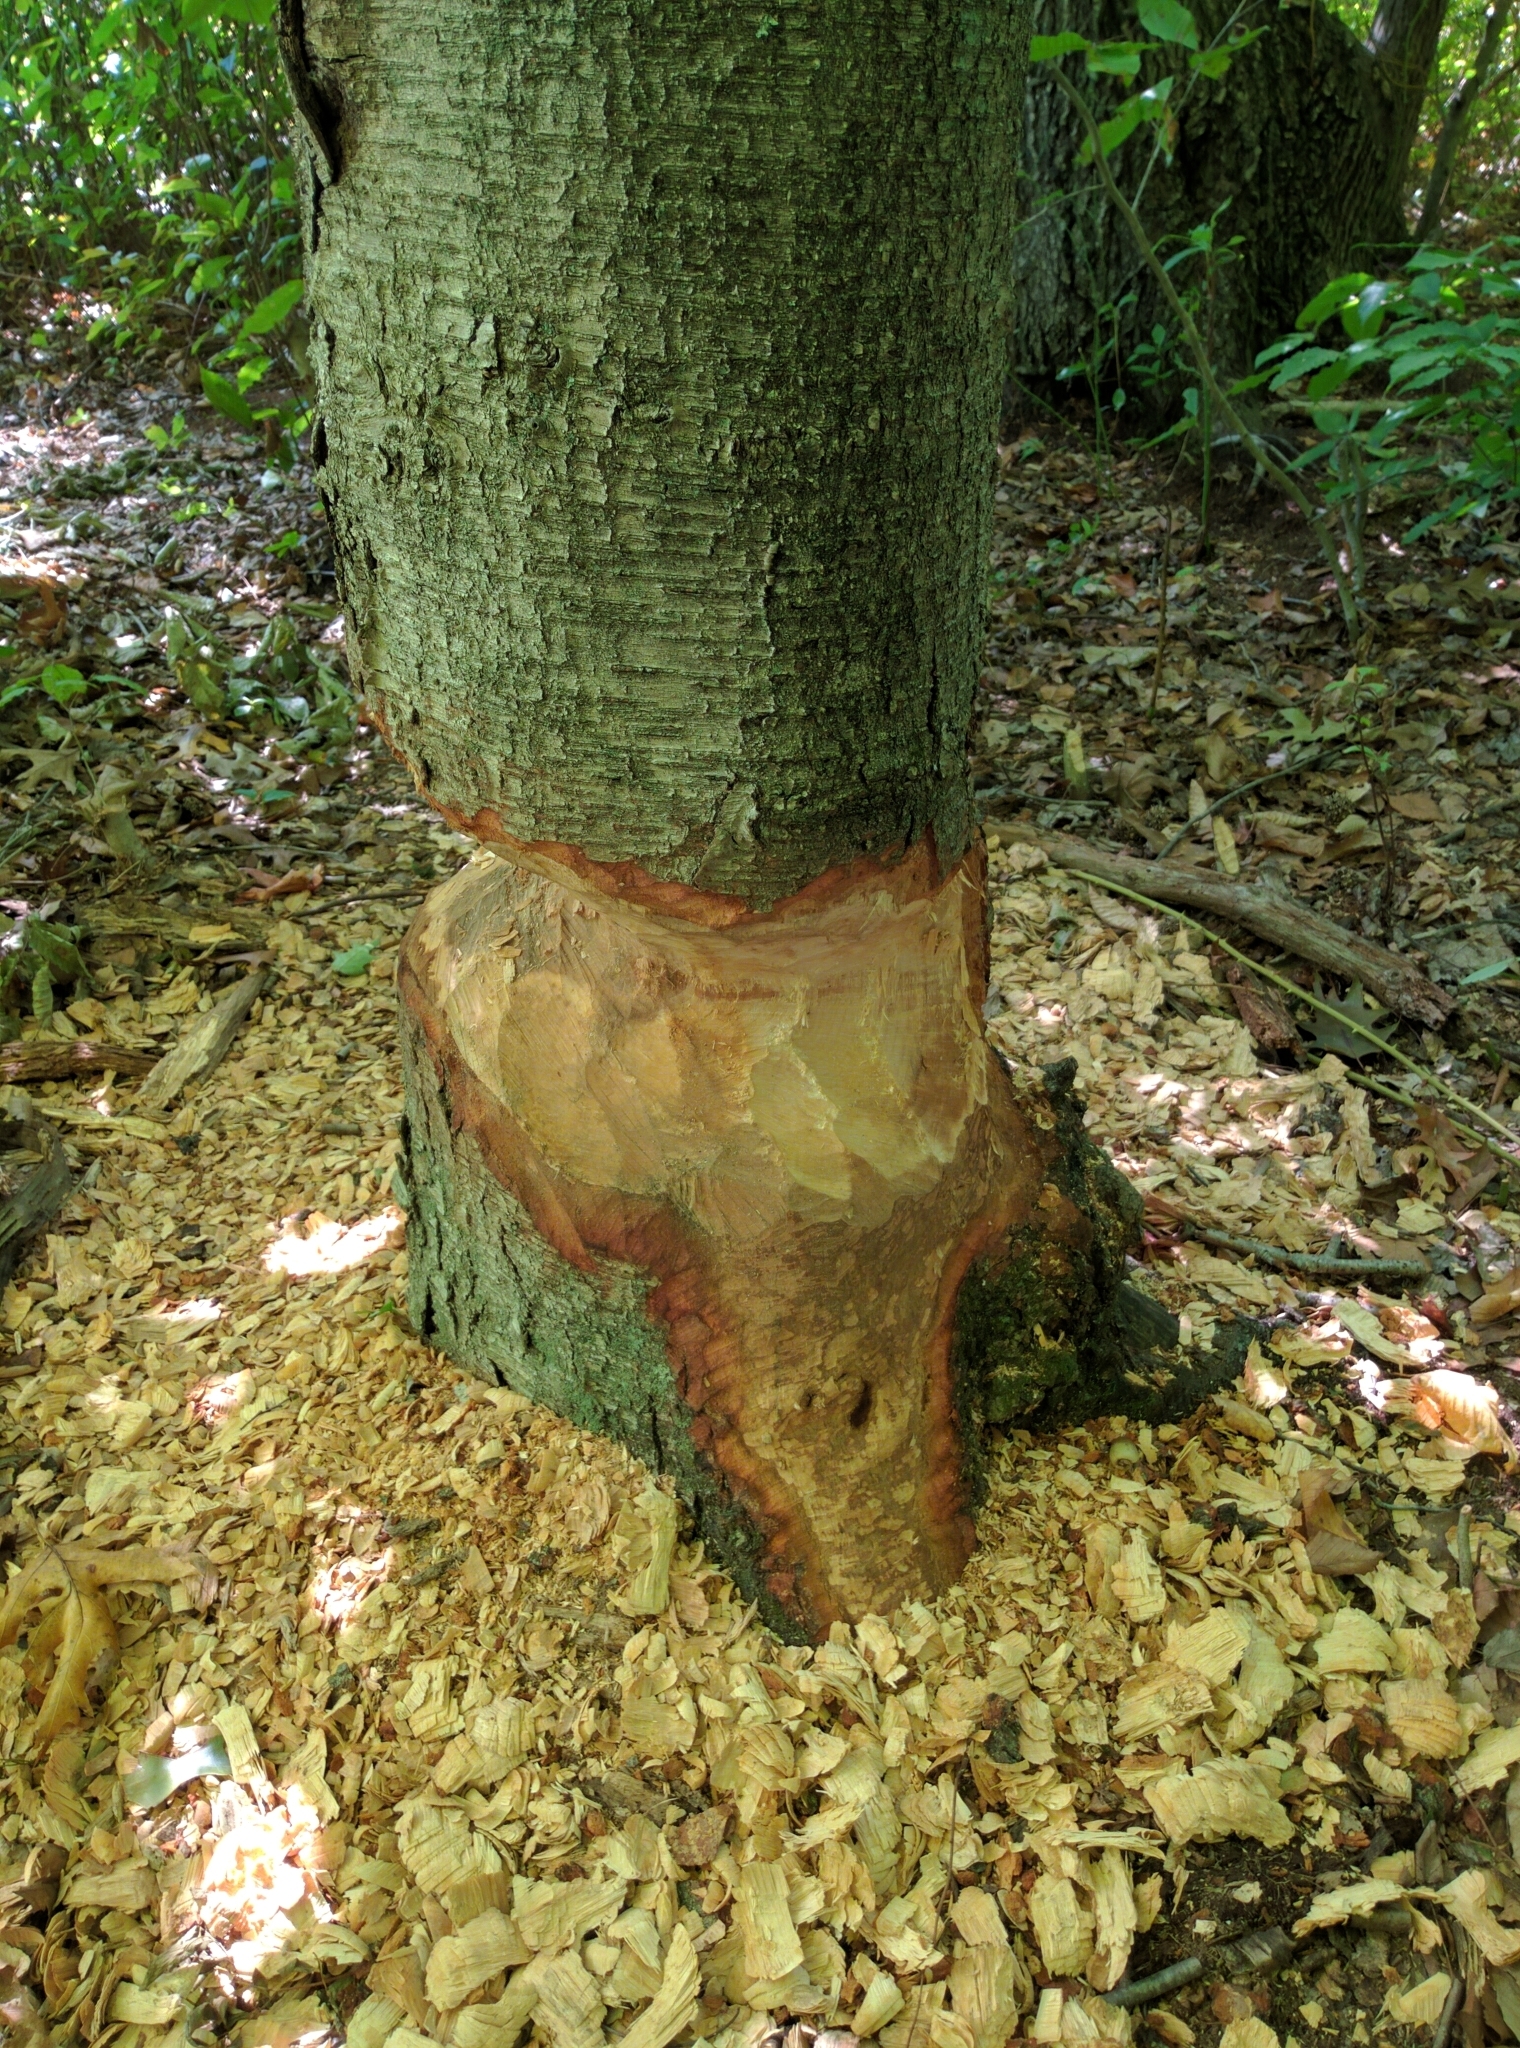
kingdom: Animalia
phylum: Chordata
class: Mammalia
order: Rodentia
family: Castoridae
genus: Castor
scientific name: Castor canadensis
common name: American beaver
